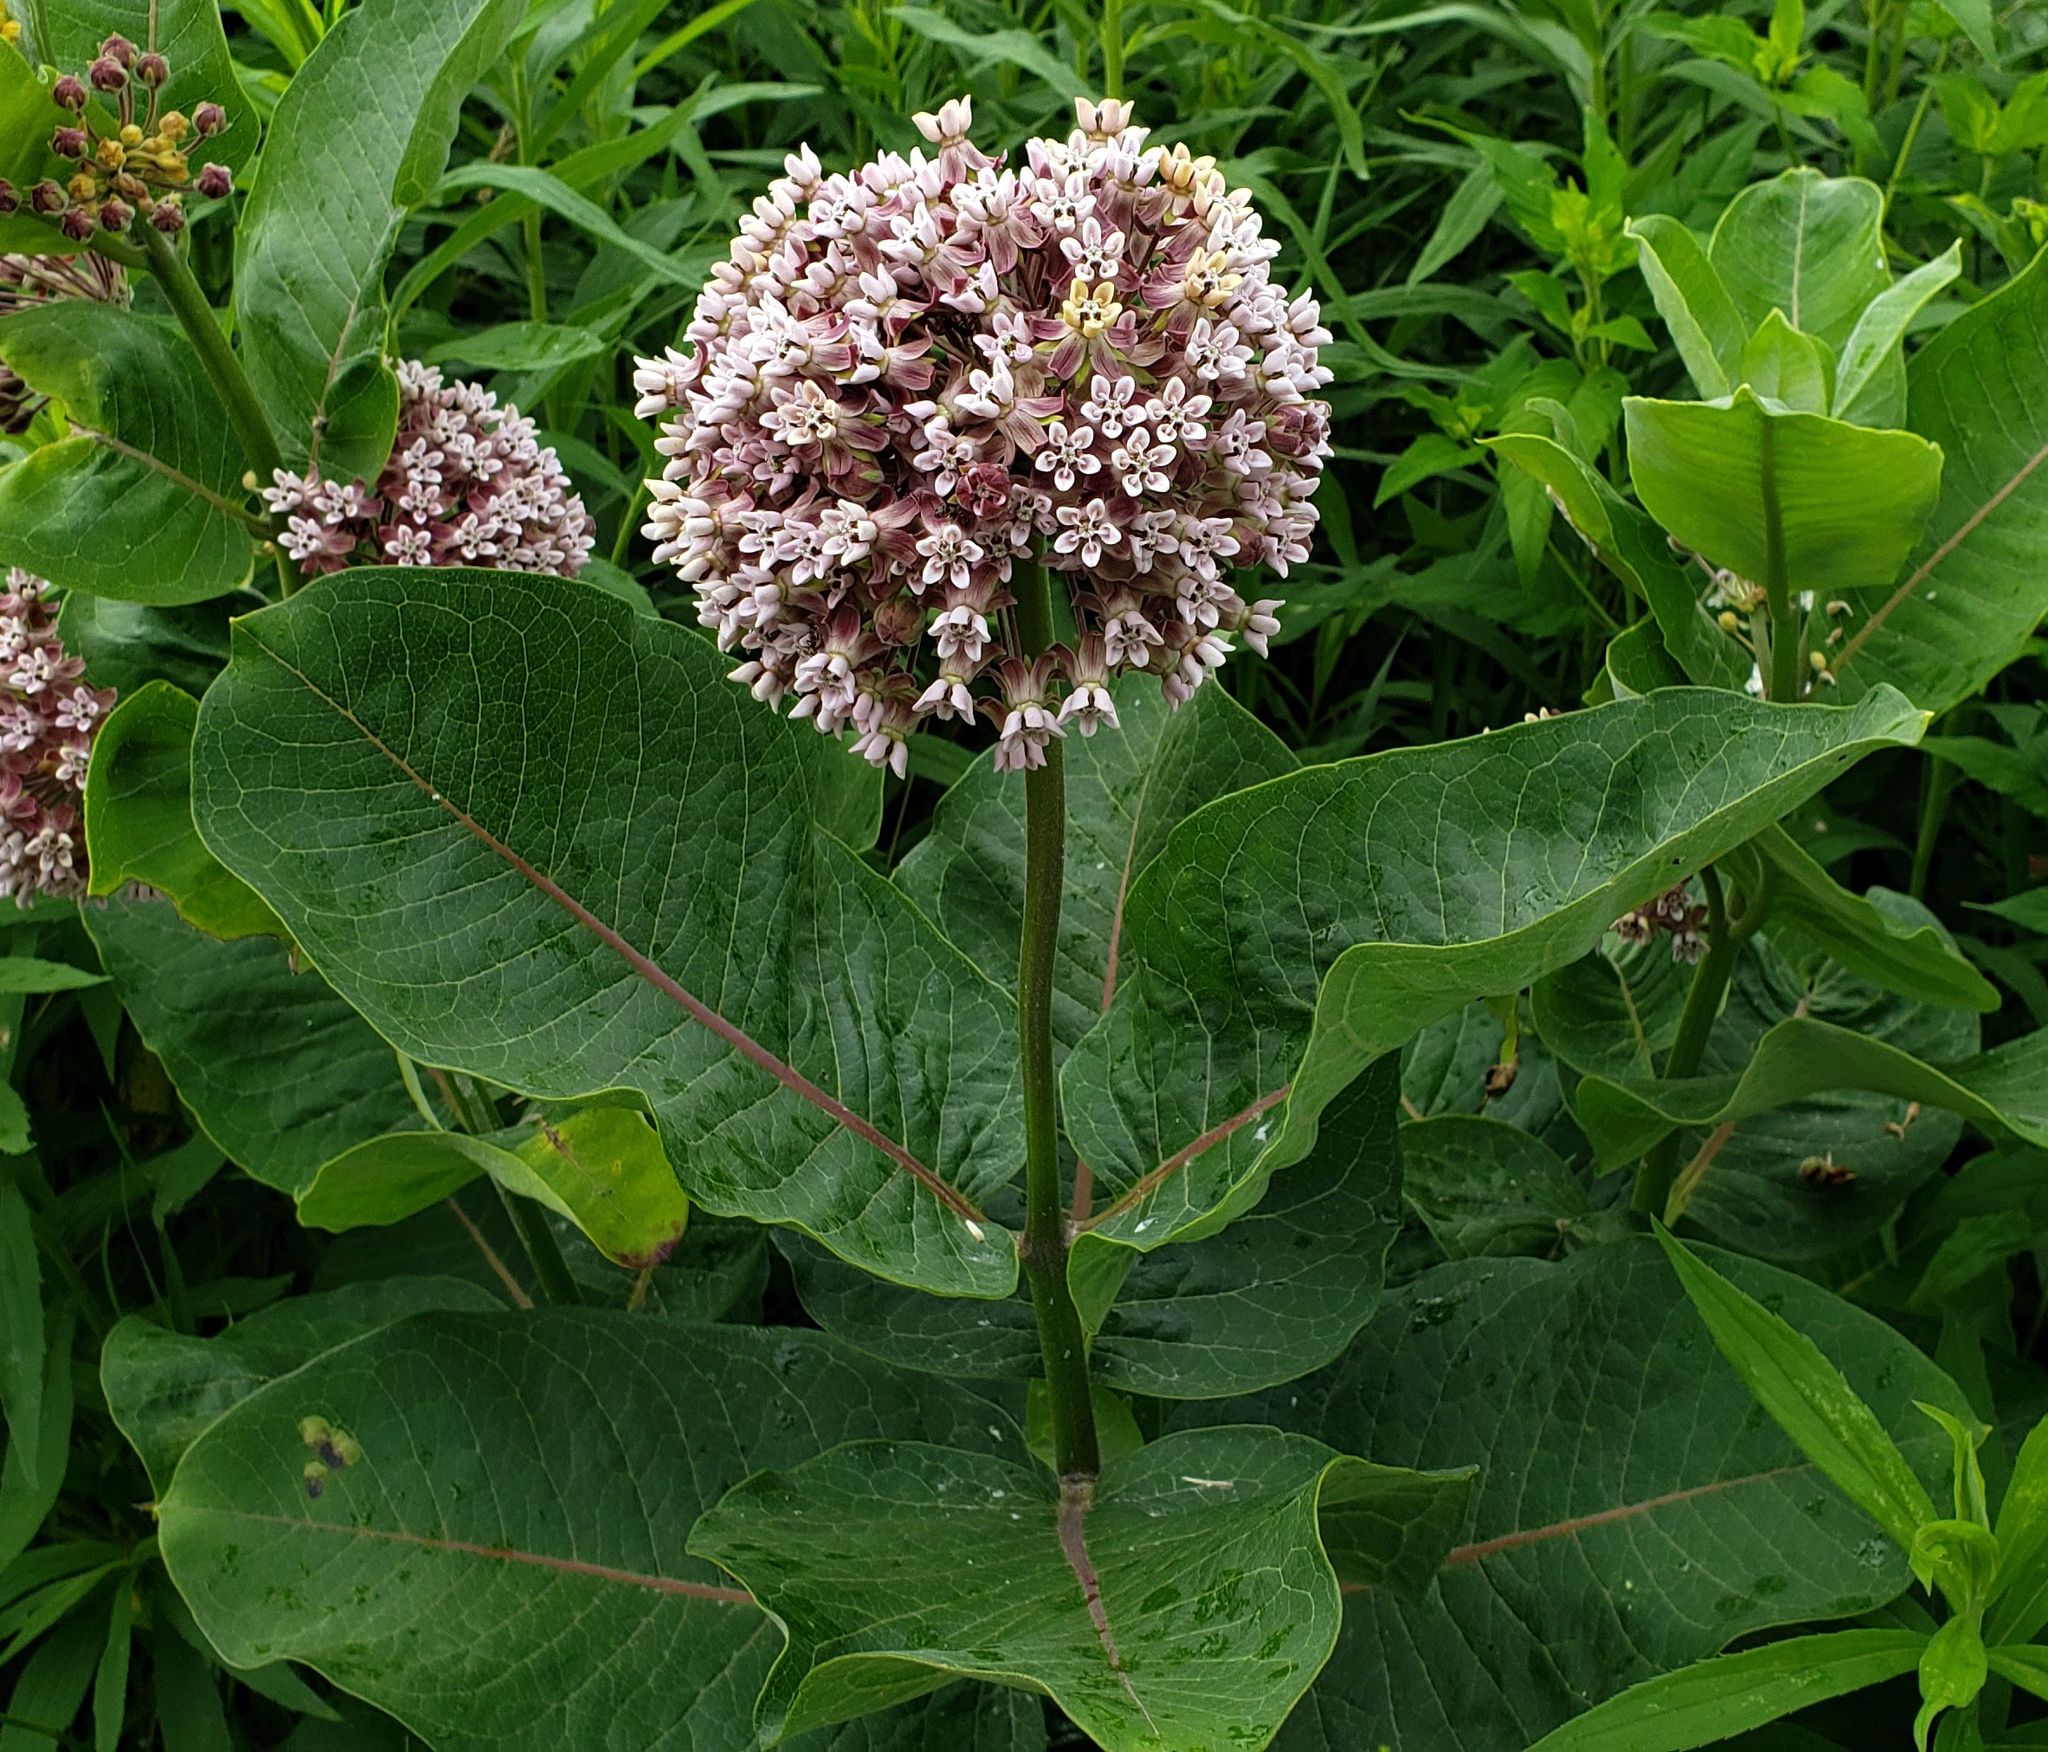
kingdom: Plantae
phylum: Tracheophyta
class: Magnoliopsida
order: Gentianales
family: Apocynaceae
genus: Asclepias
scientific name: Asclepias syriaca
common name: Common milkweed
